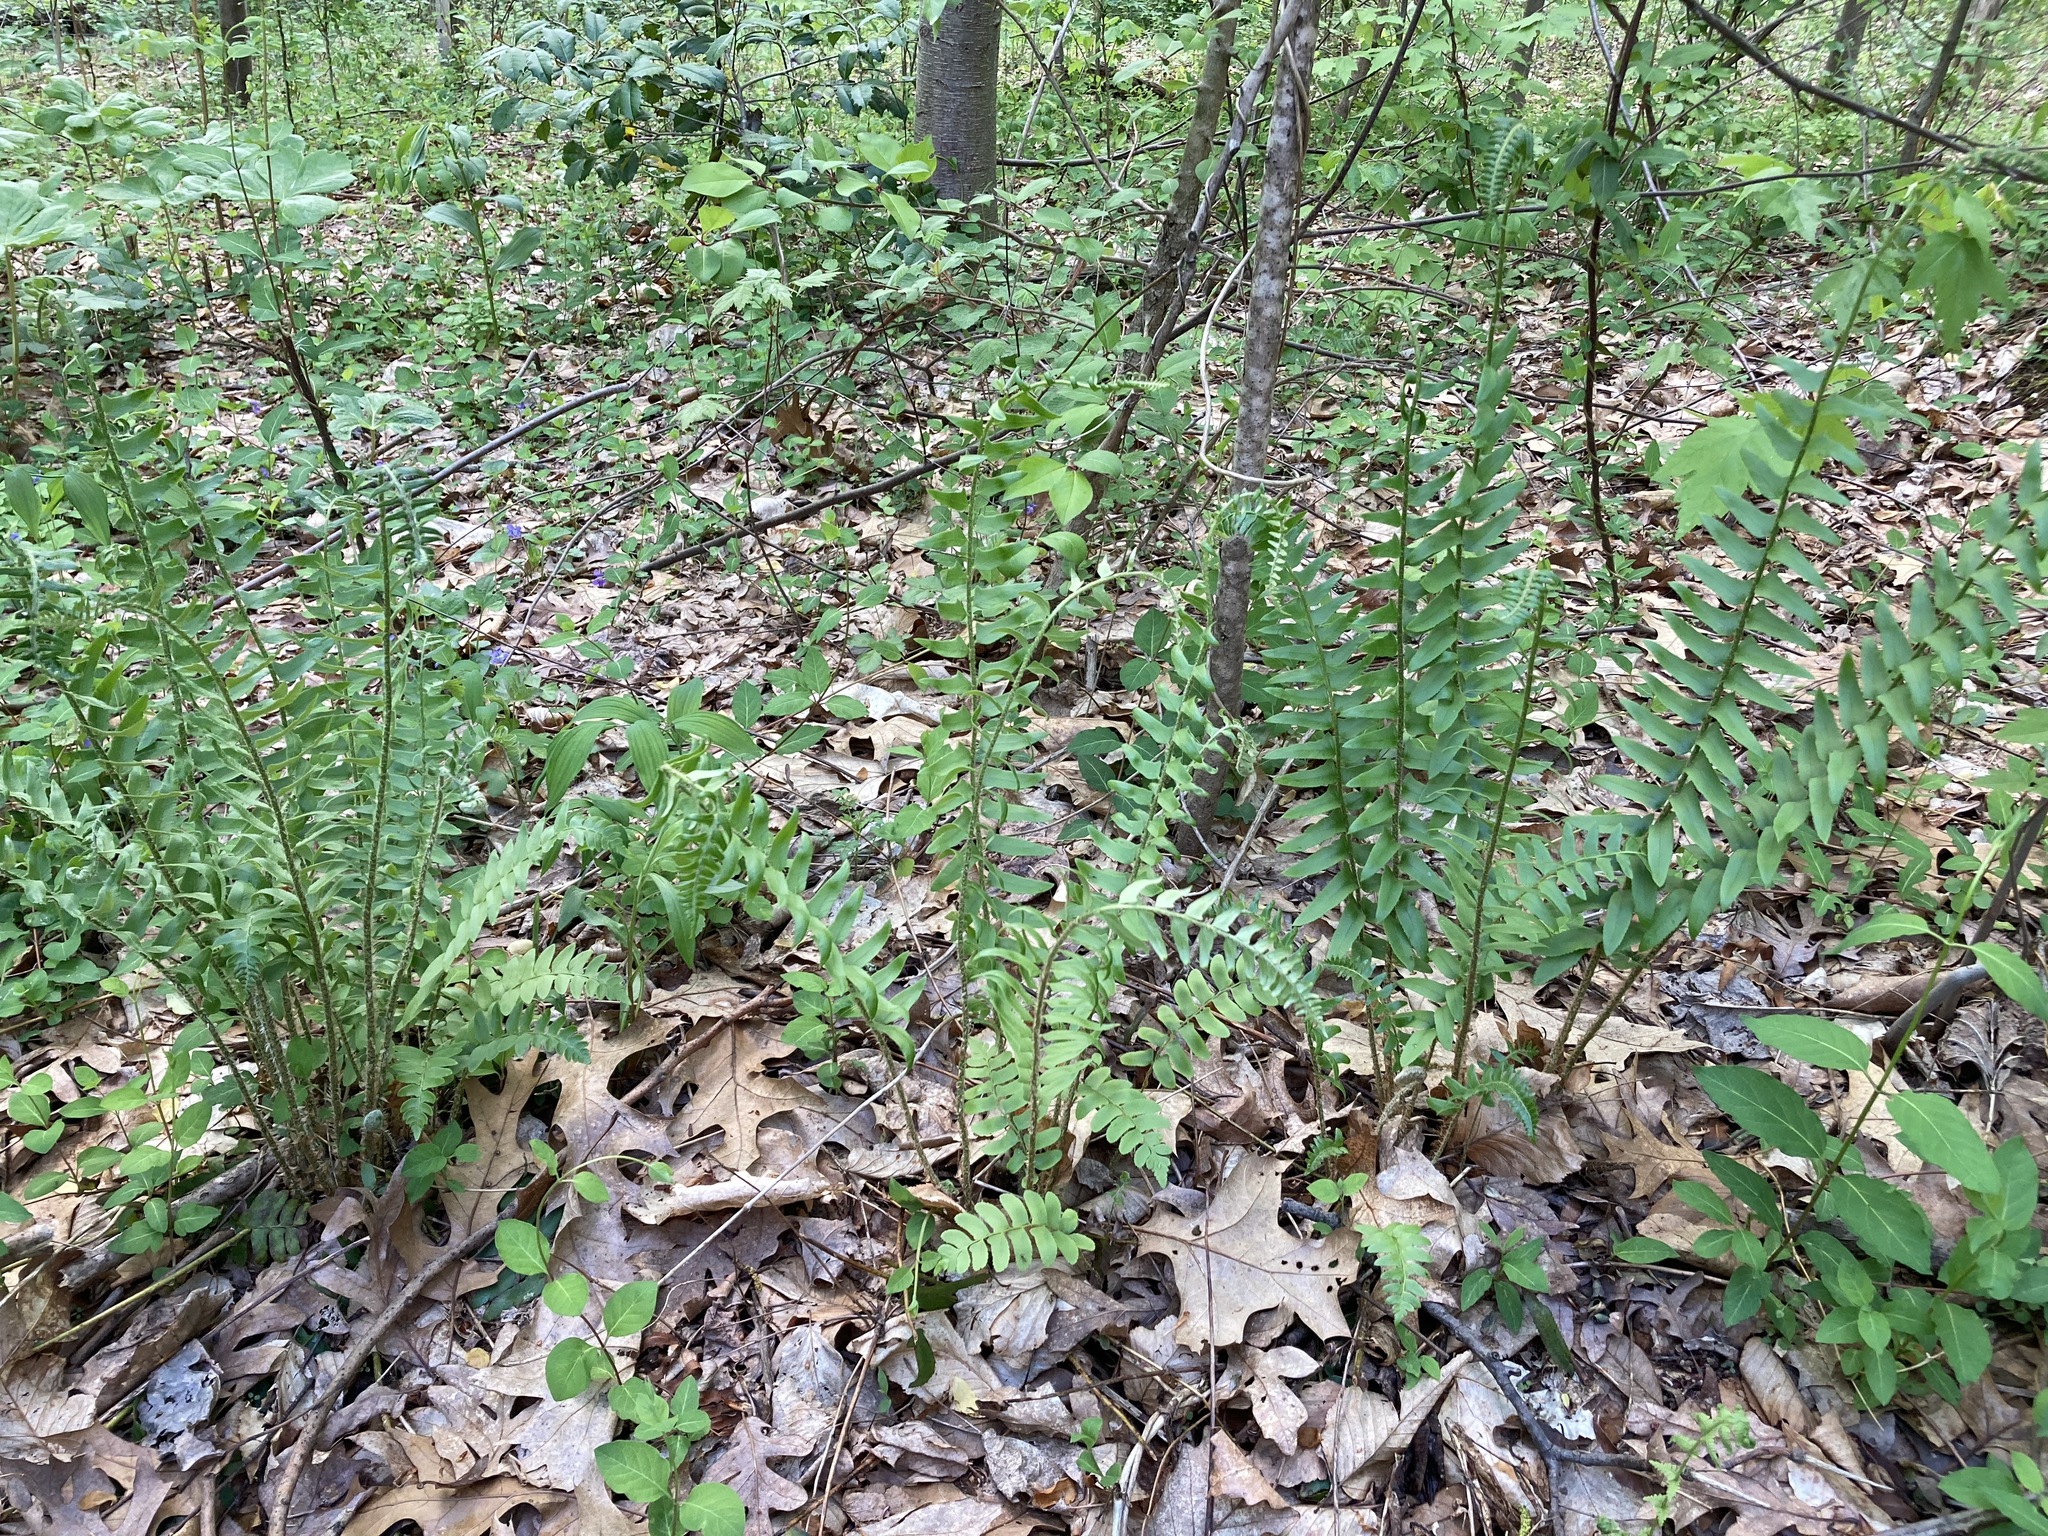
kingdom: Plantae
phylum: Tracheophyta
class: Polypodiopsida
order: Polypodiales
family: Dryopteridaceae
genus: Polystichum
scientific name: Polystichum acrostichoides
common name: Christmas fern
